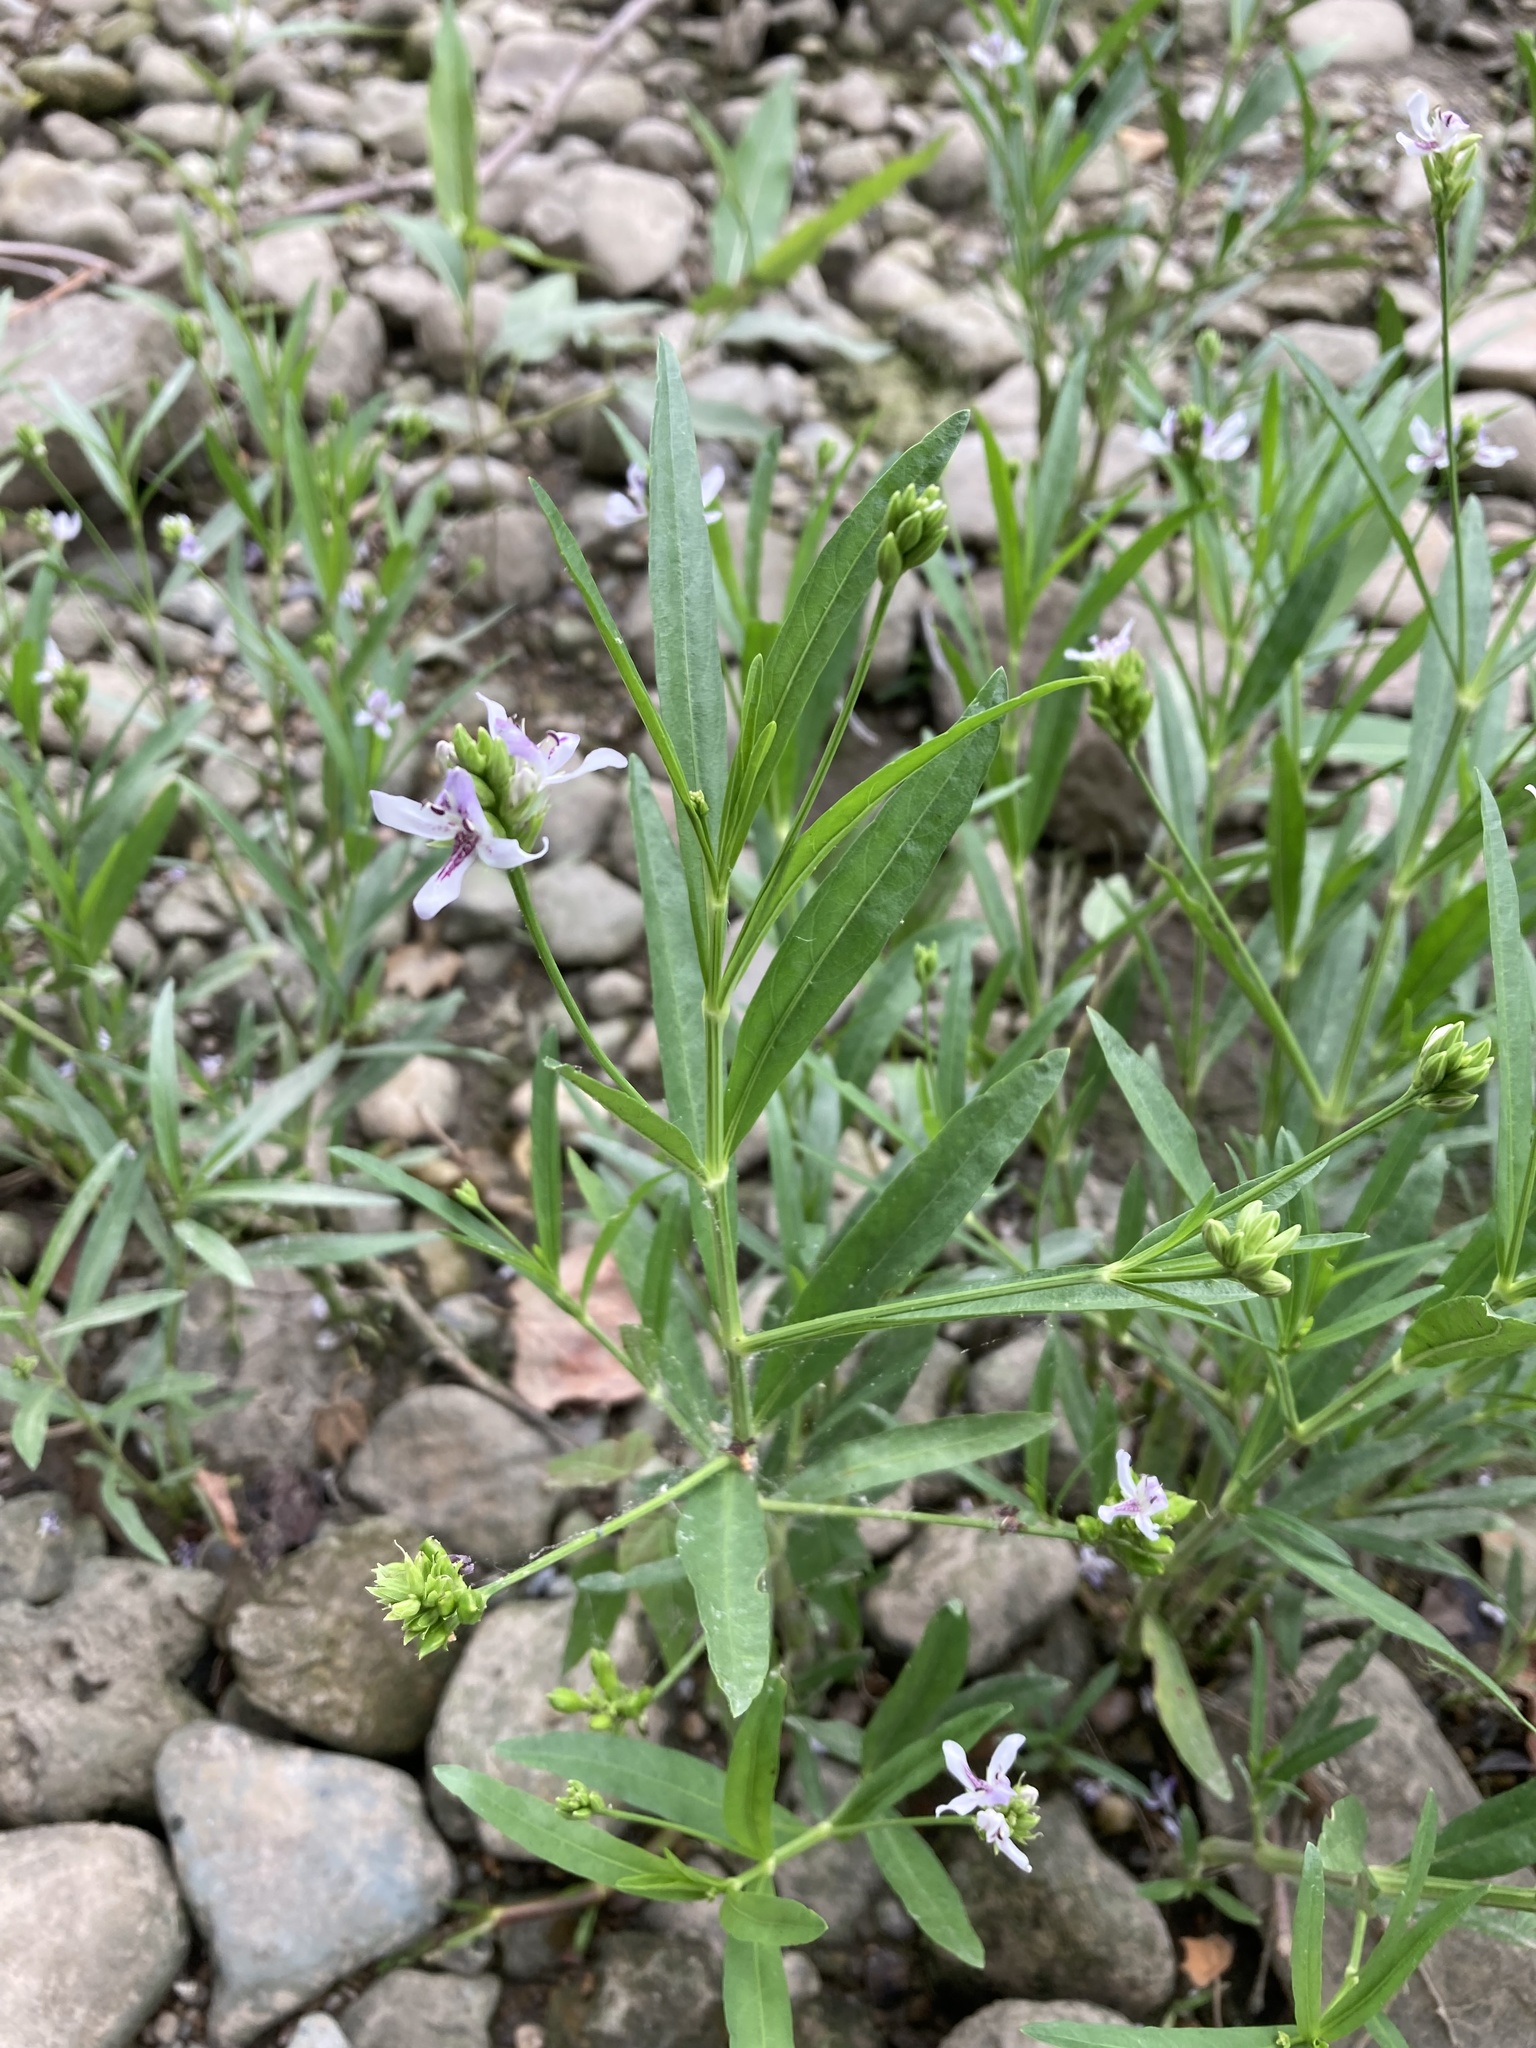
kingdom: Plantae
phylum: Tracheophyta
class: Magnoliopsida
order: Lamiales
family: Acanthaceae
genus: Dianthera
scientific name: Dianthera americana
